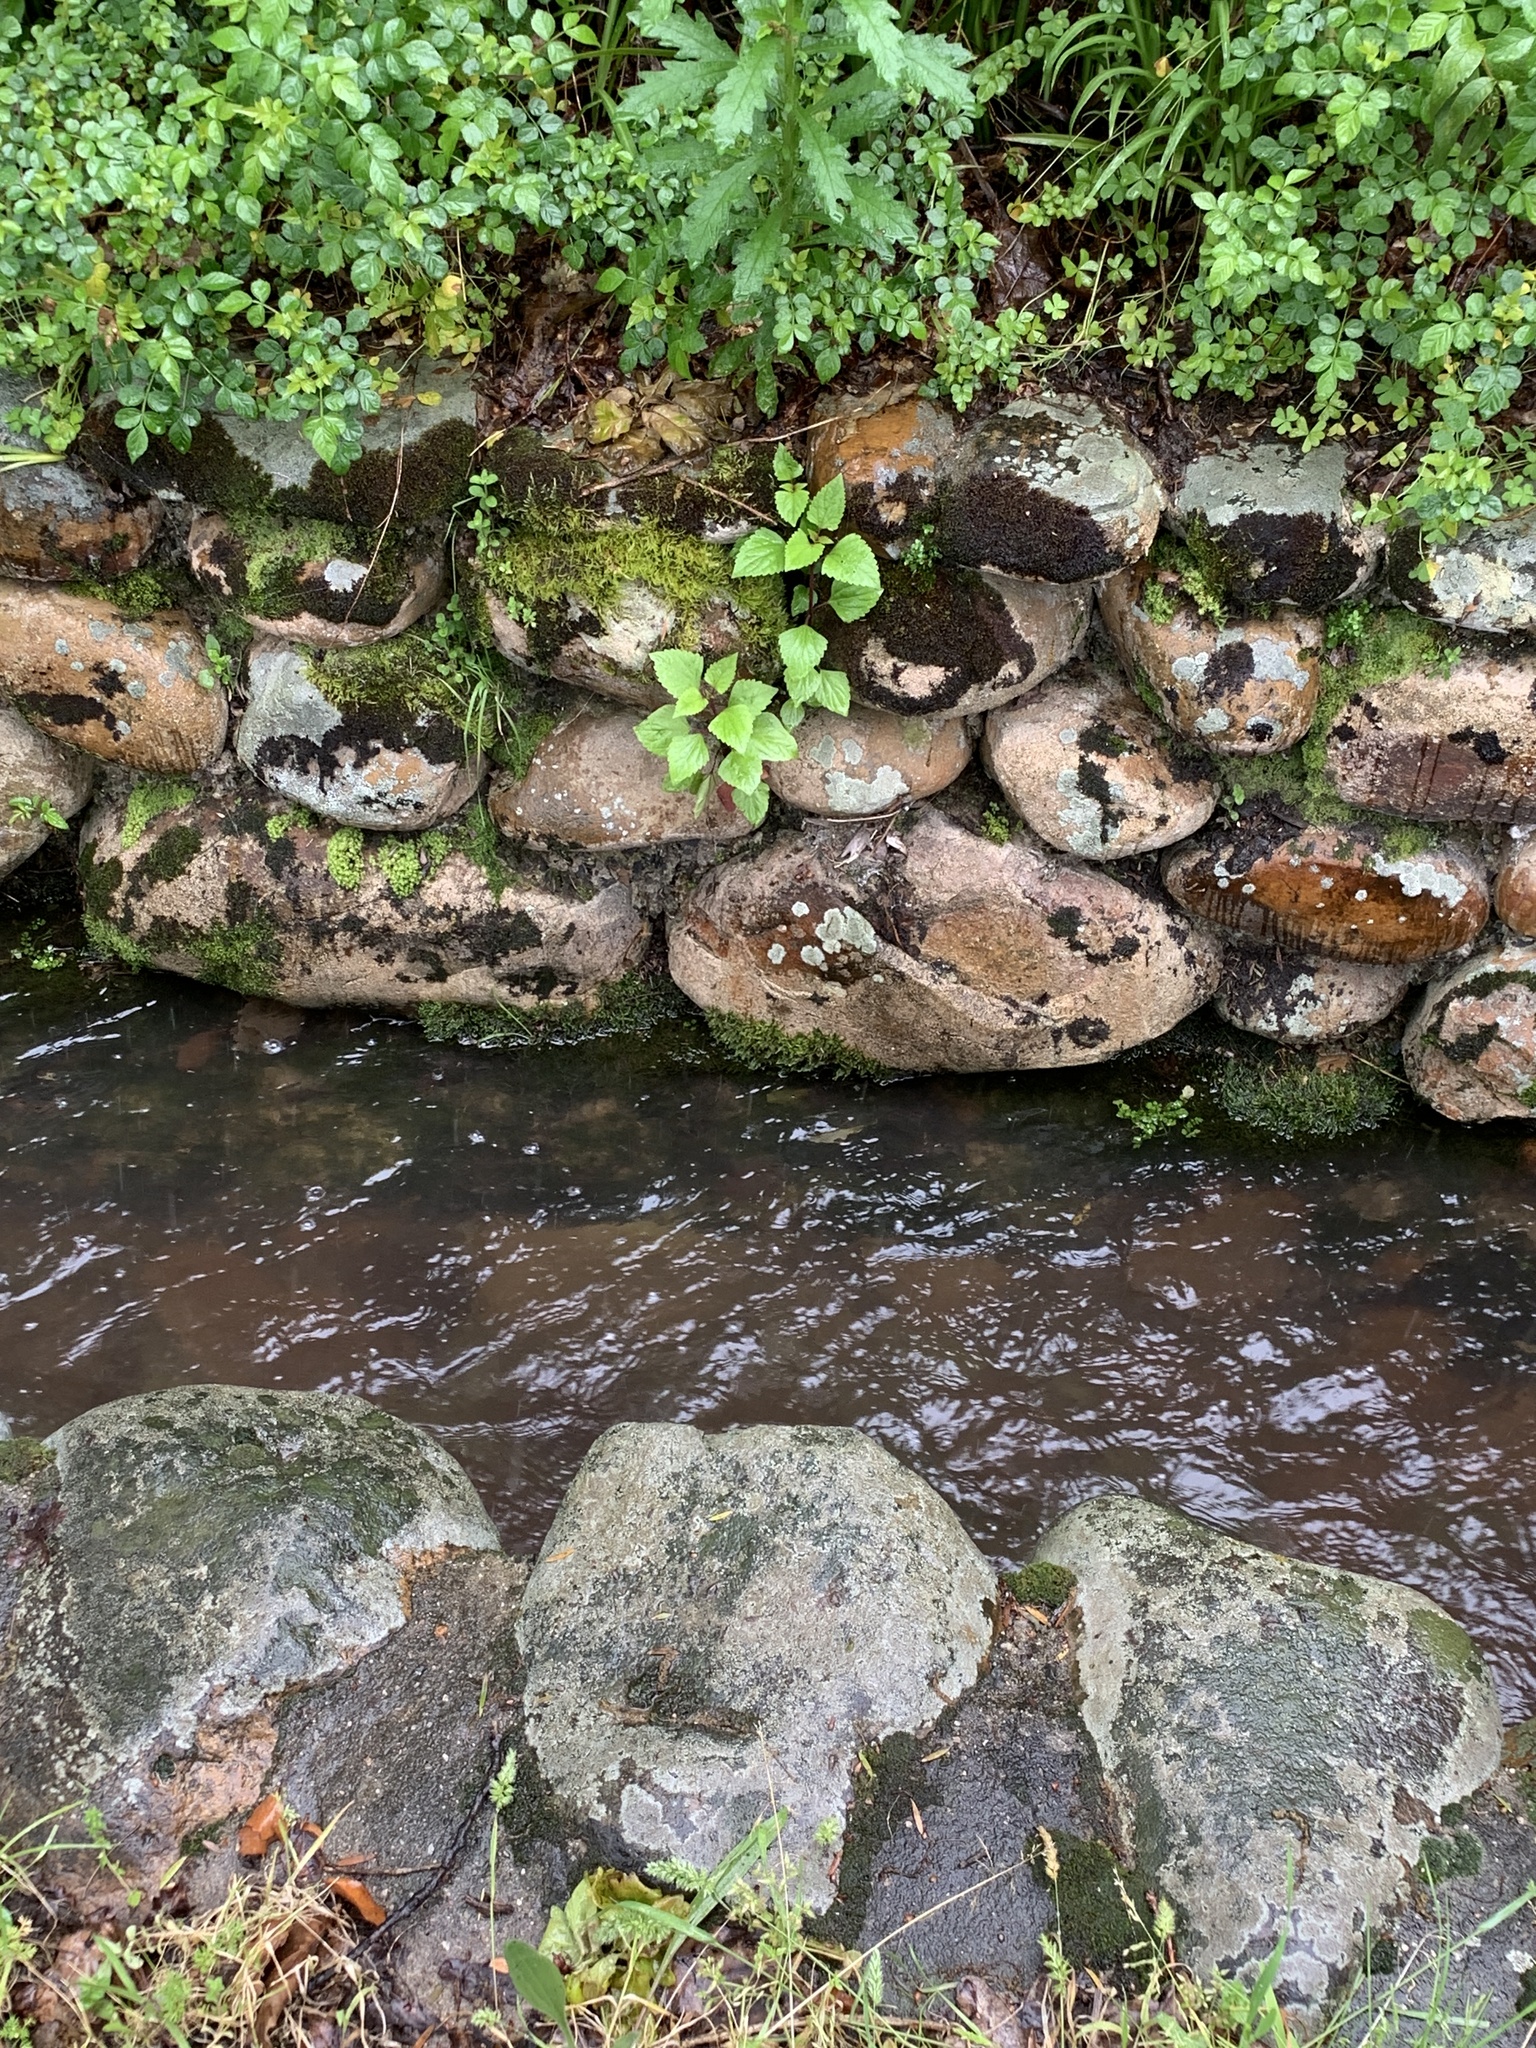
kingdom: Plantae
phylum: Tracheophyta
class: Magnoliopsida
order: Asterales
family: Asteraceae
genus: Ageratina
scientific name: Ageratina adenophora
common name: Sticky snakeroot
